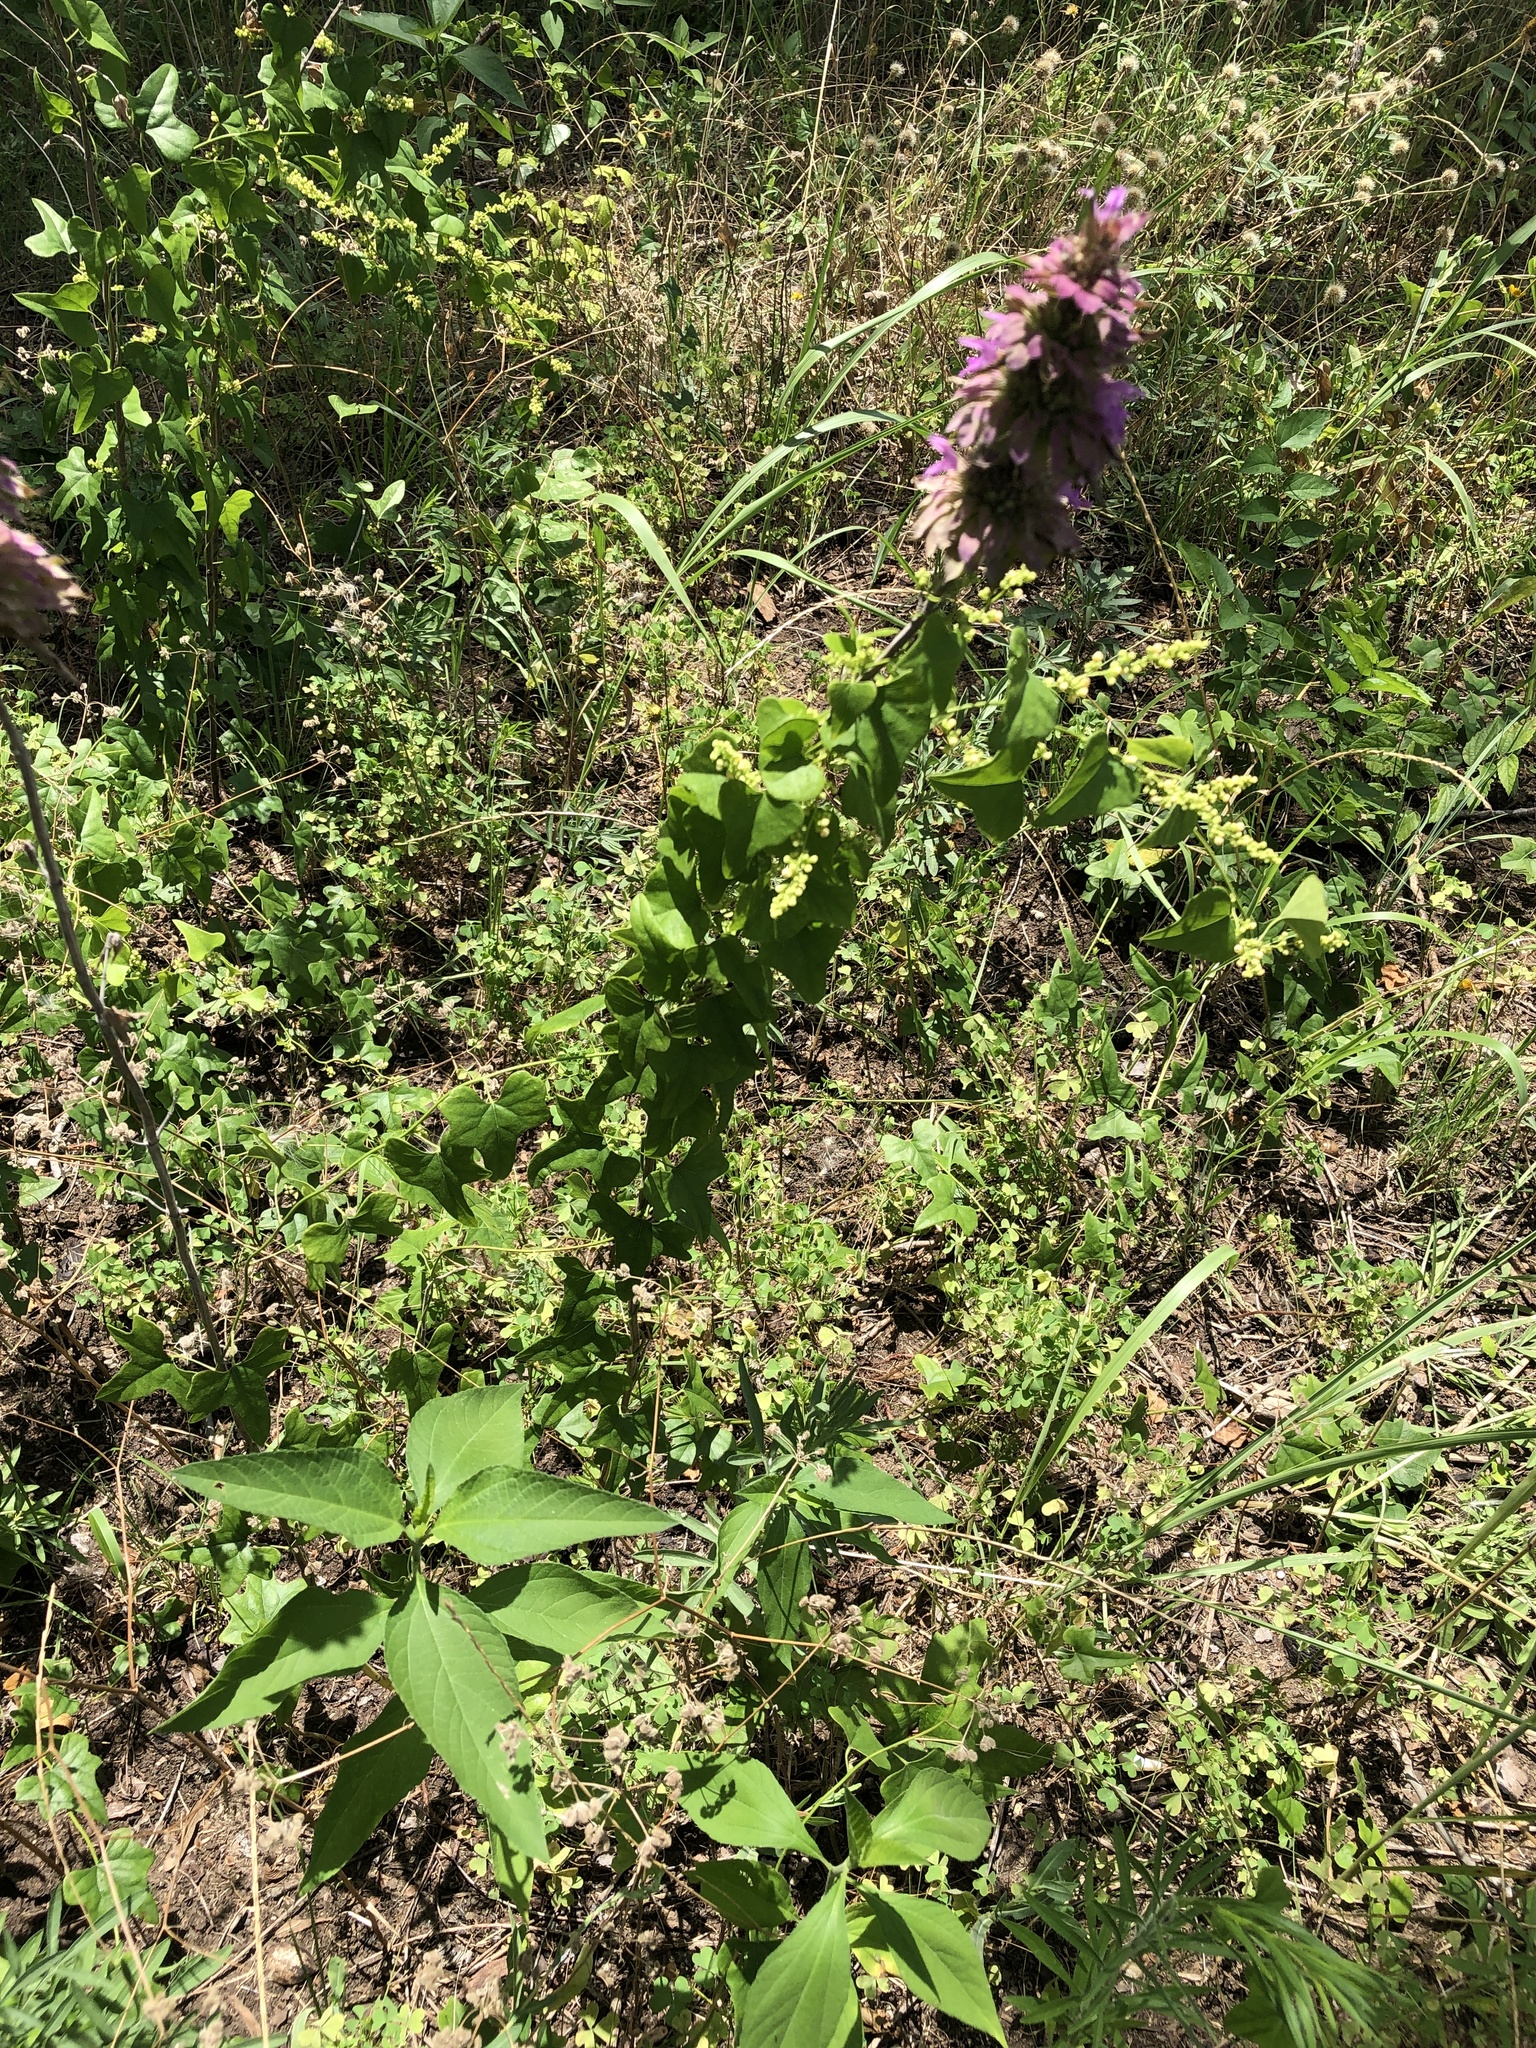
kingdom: Plantae
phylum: Tracheophyta
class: Magnoliopsida
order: Ranunculales
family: Menispermaceae
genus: Cocculus
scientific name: Cocculus carolinus
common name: Carolina moonseed
